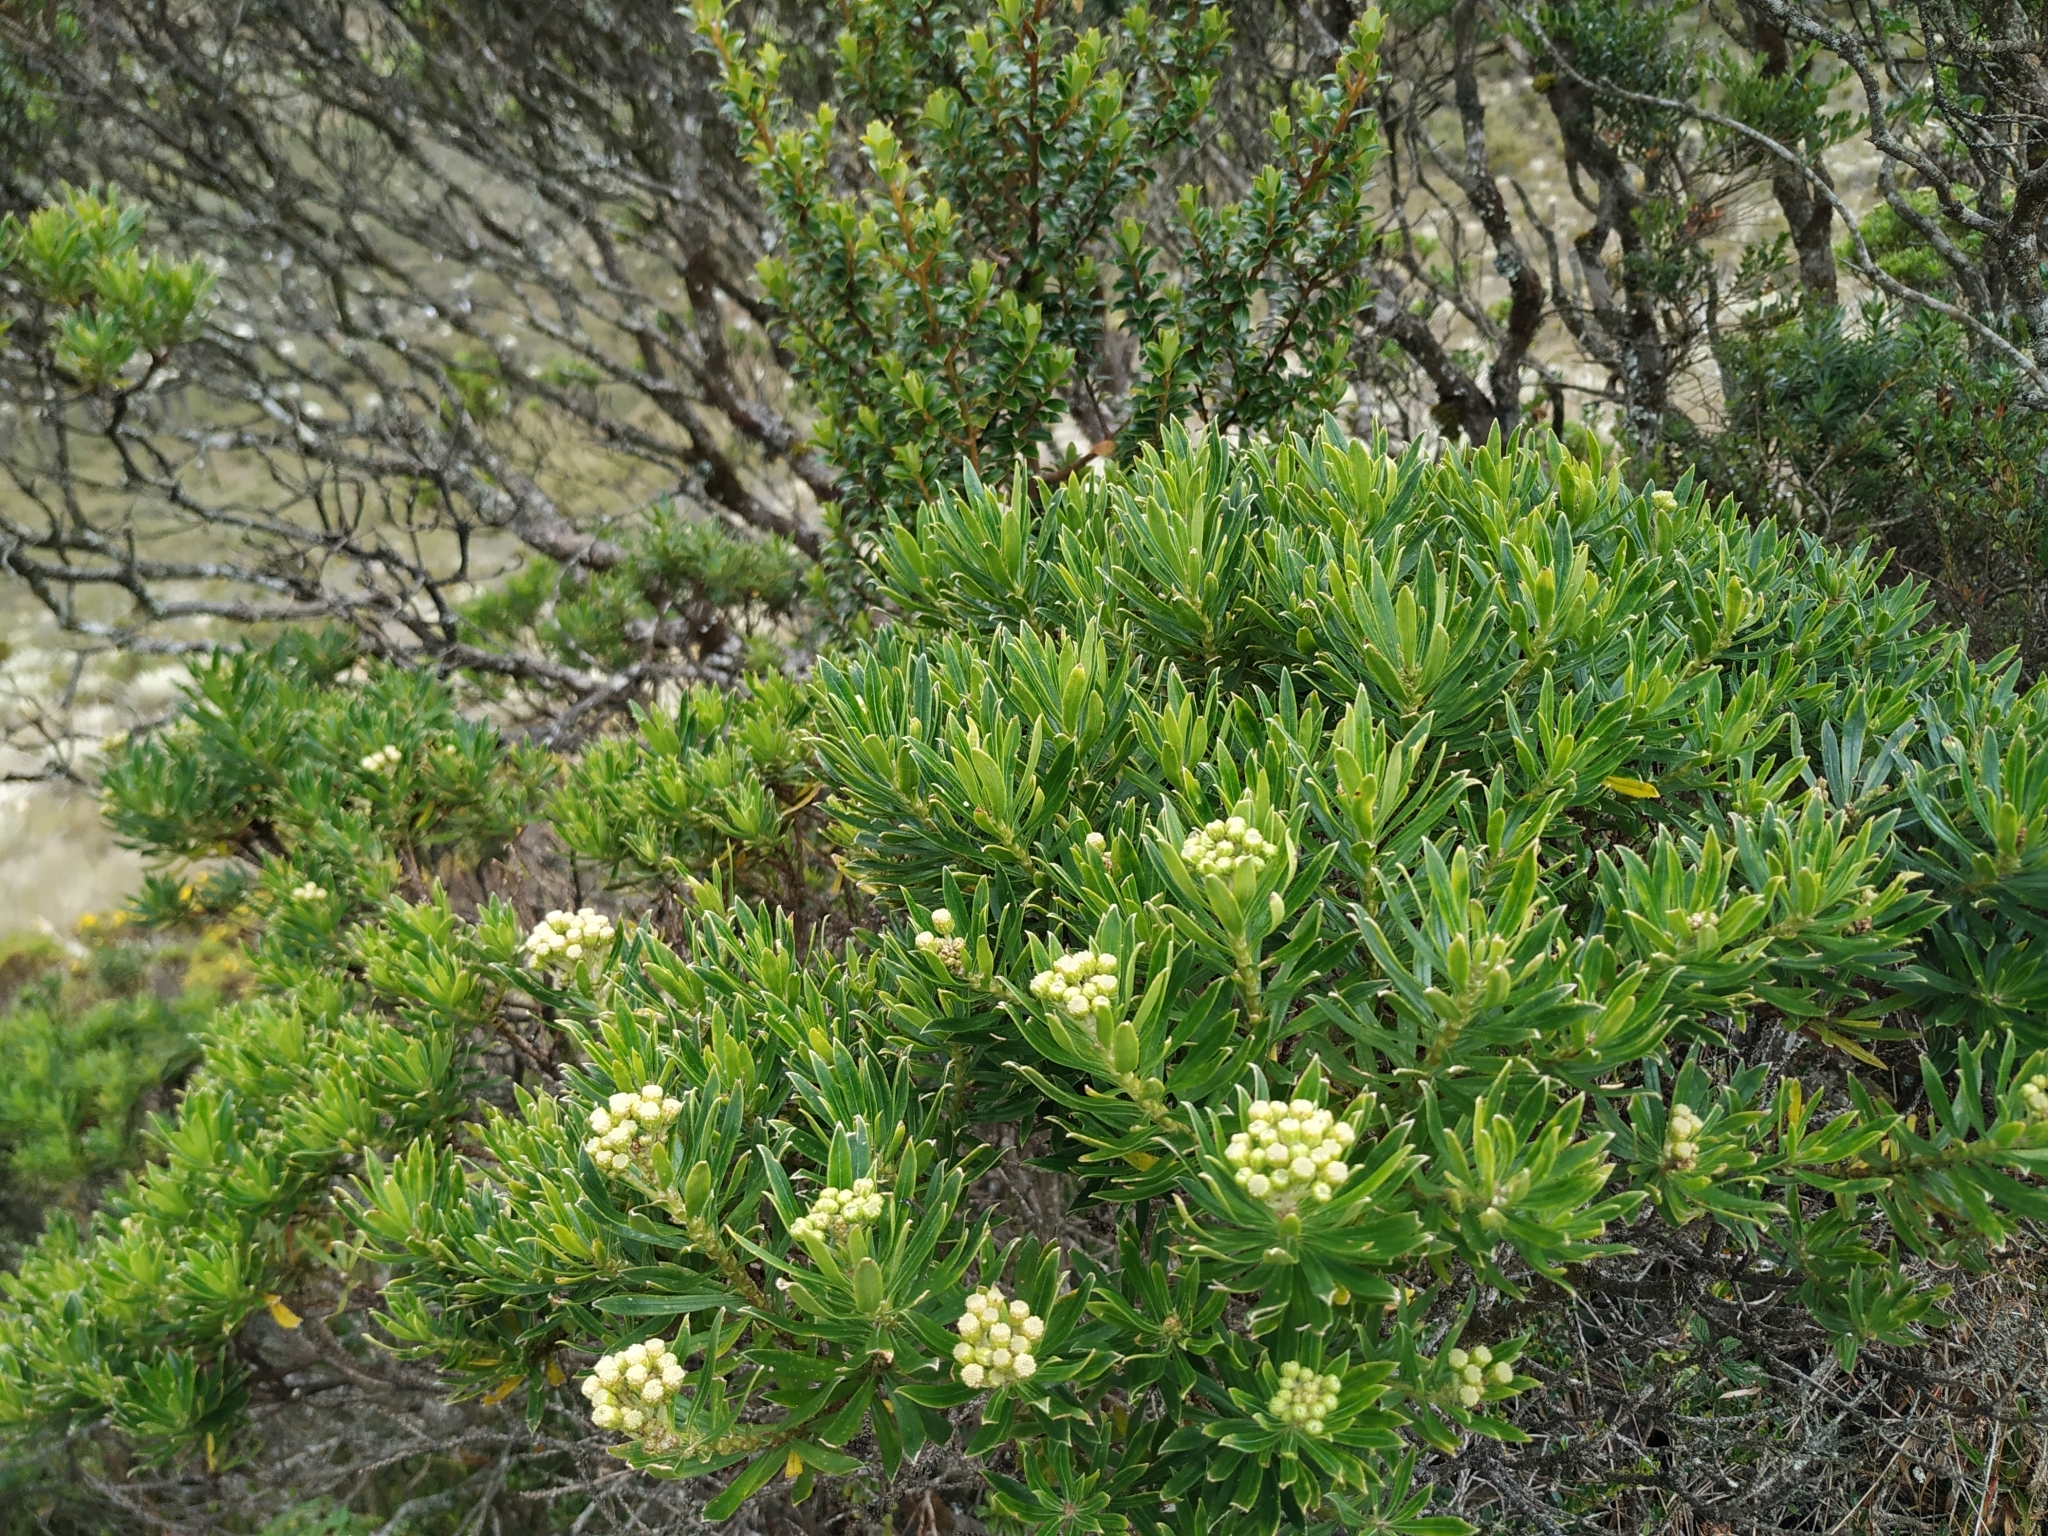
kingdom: Plantae
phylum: Tracheophyta
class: Magnoliopsida
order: Asterales
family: Asteraceae
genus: Monticalia
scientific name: Monticalia pulchella
